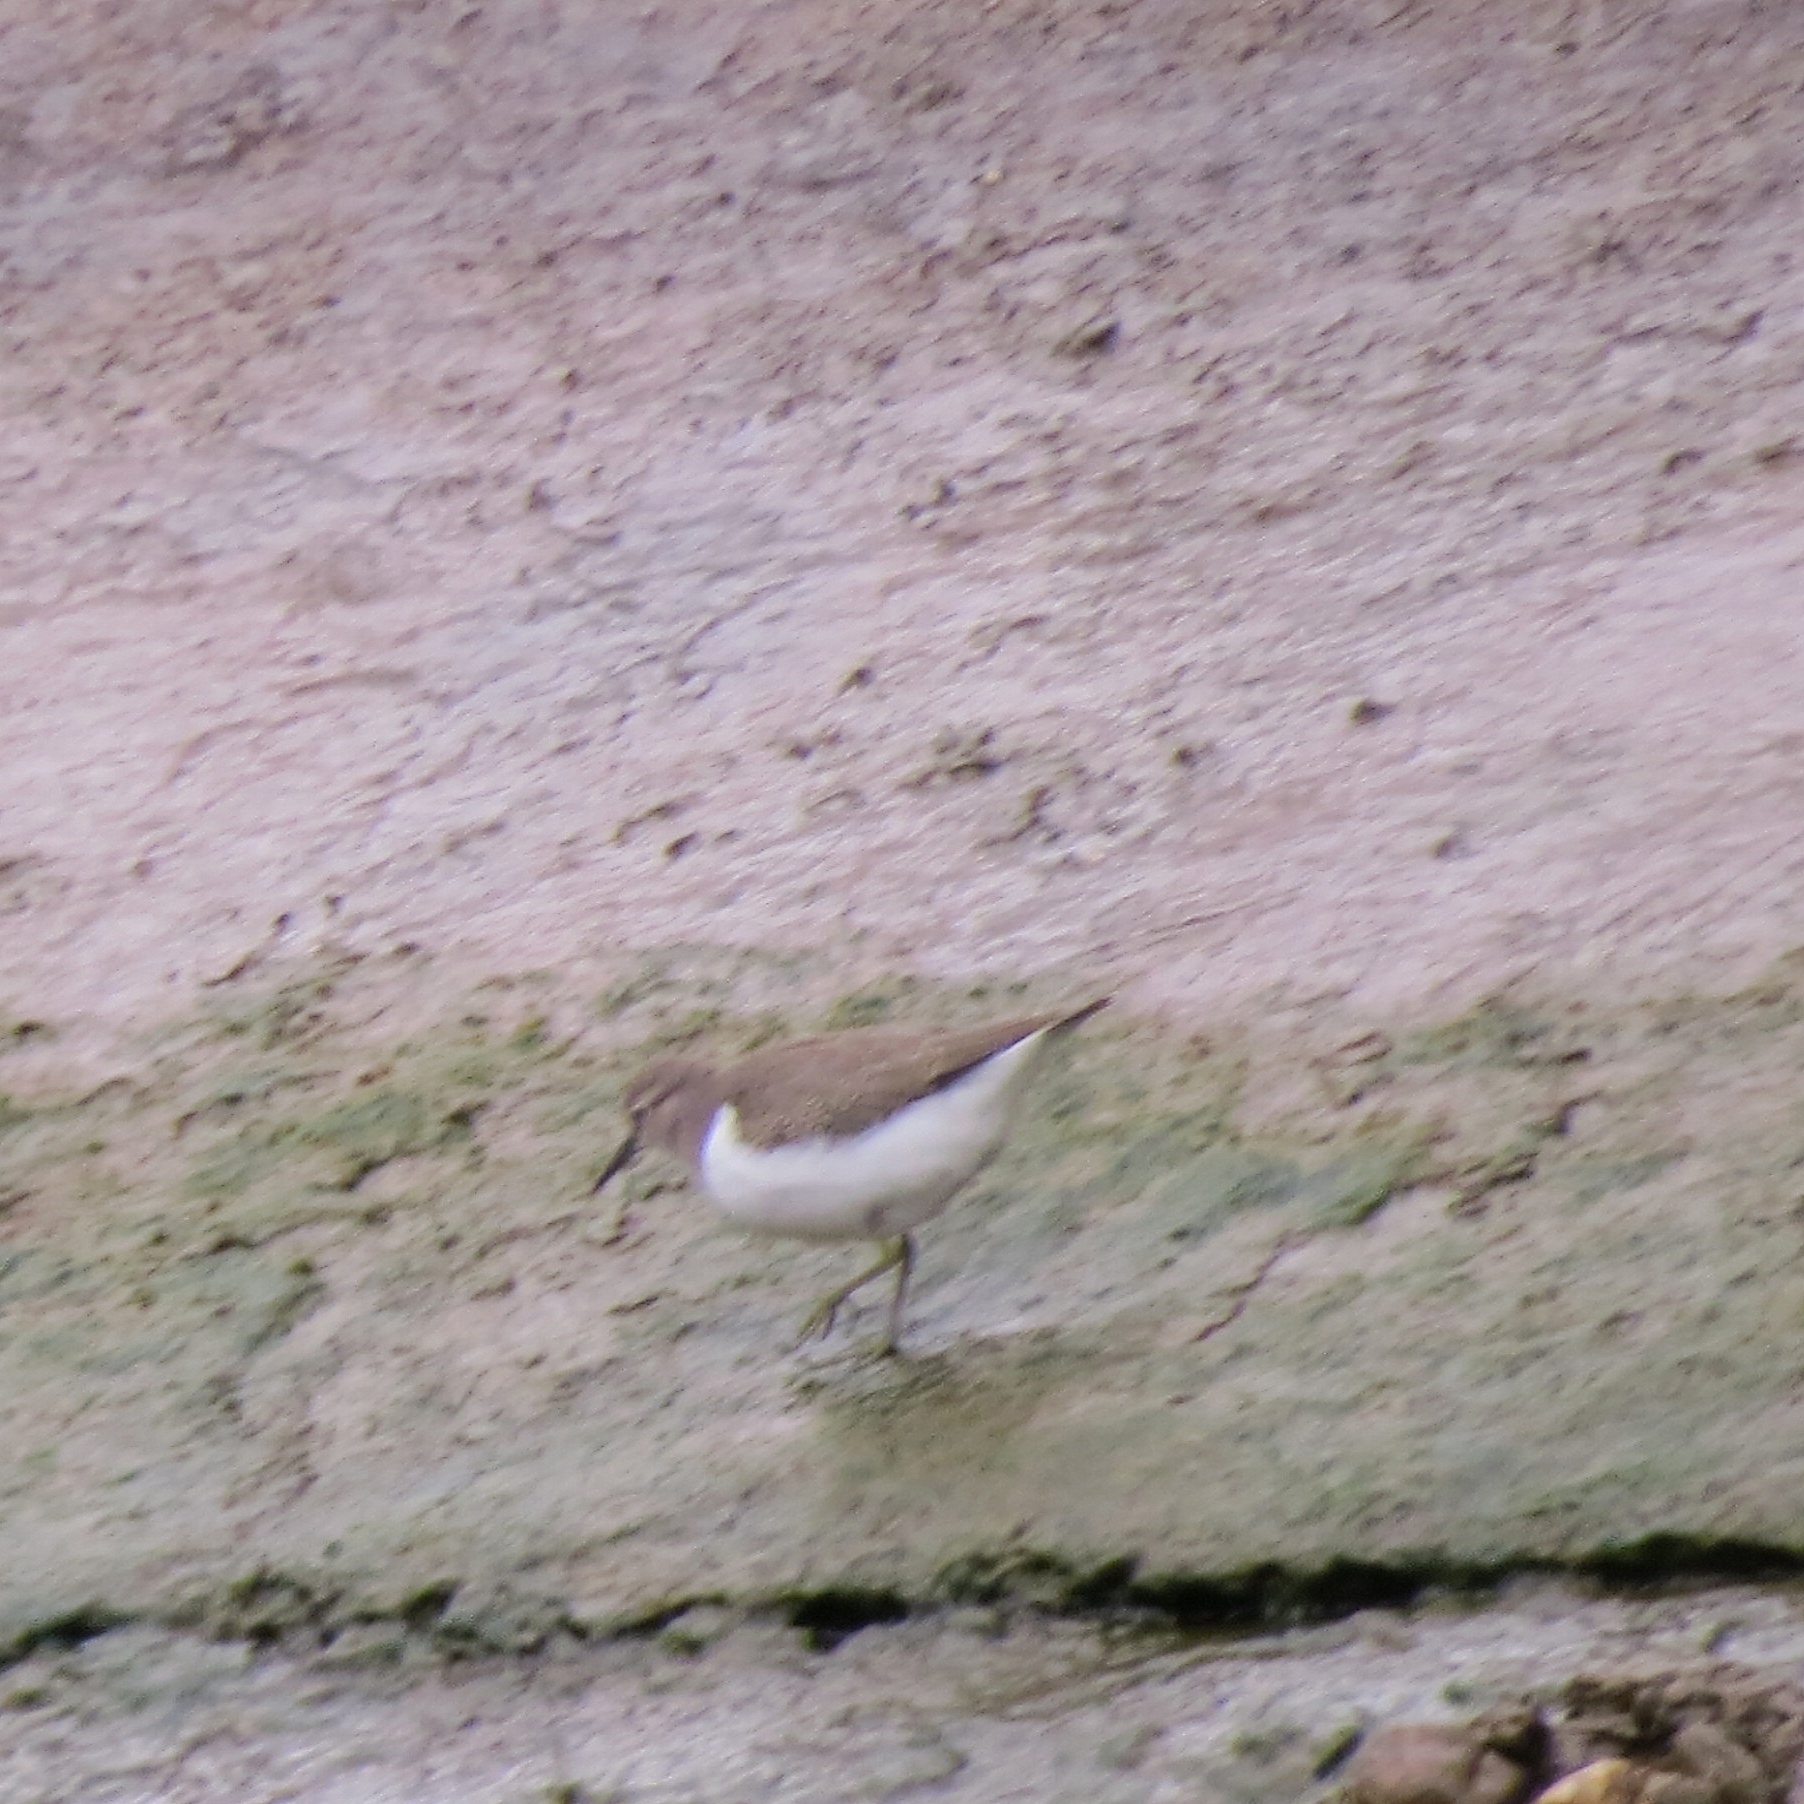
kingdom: Animalia
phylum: Chordata
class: Aves
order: Charadriiformes
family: Scolopacidae
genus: Actitis
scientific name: Actitis hypoleucos
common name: Common sandpiper
